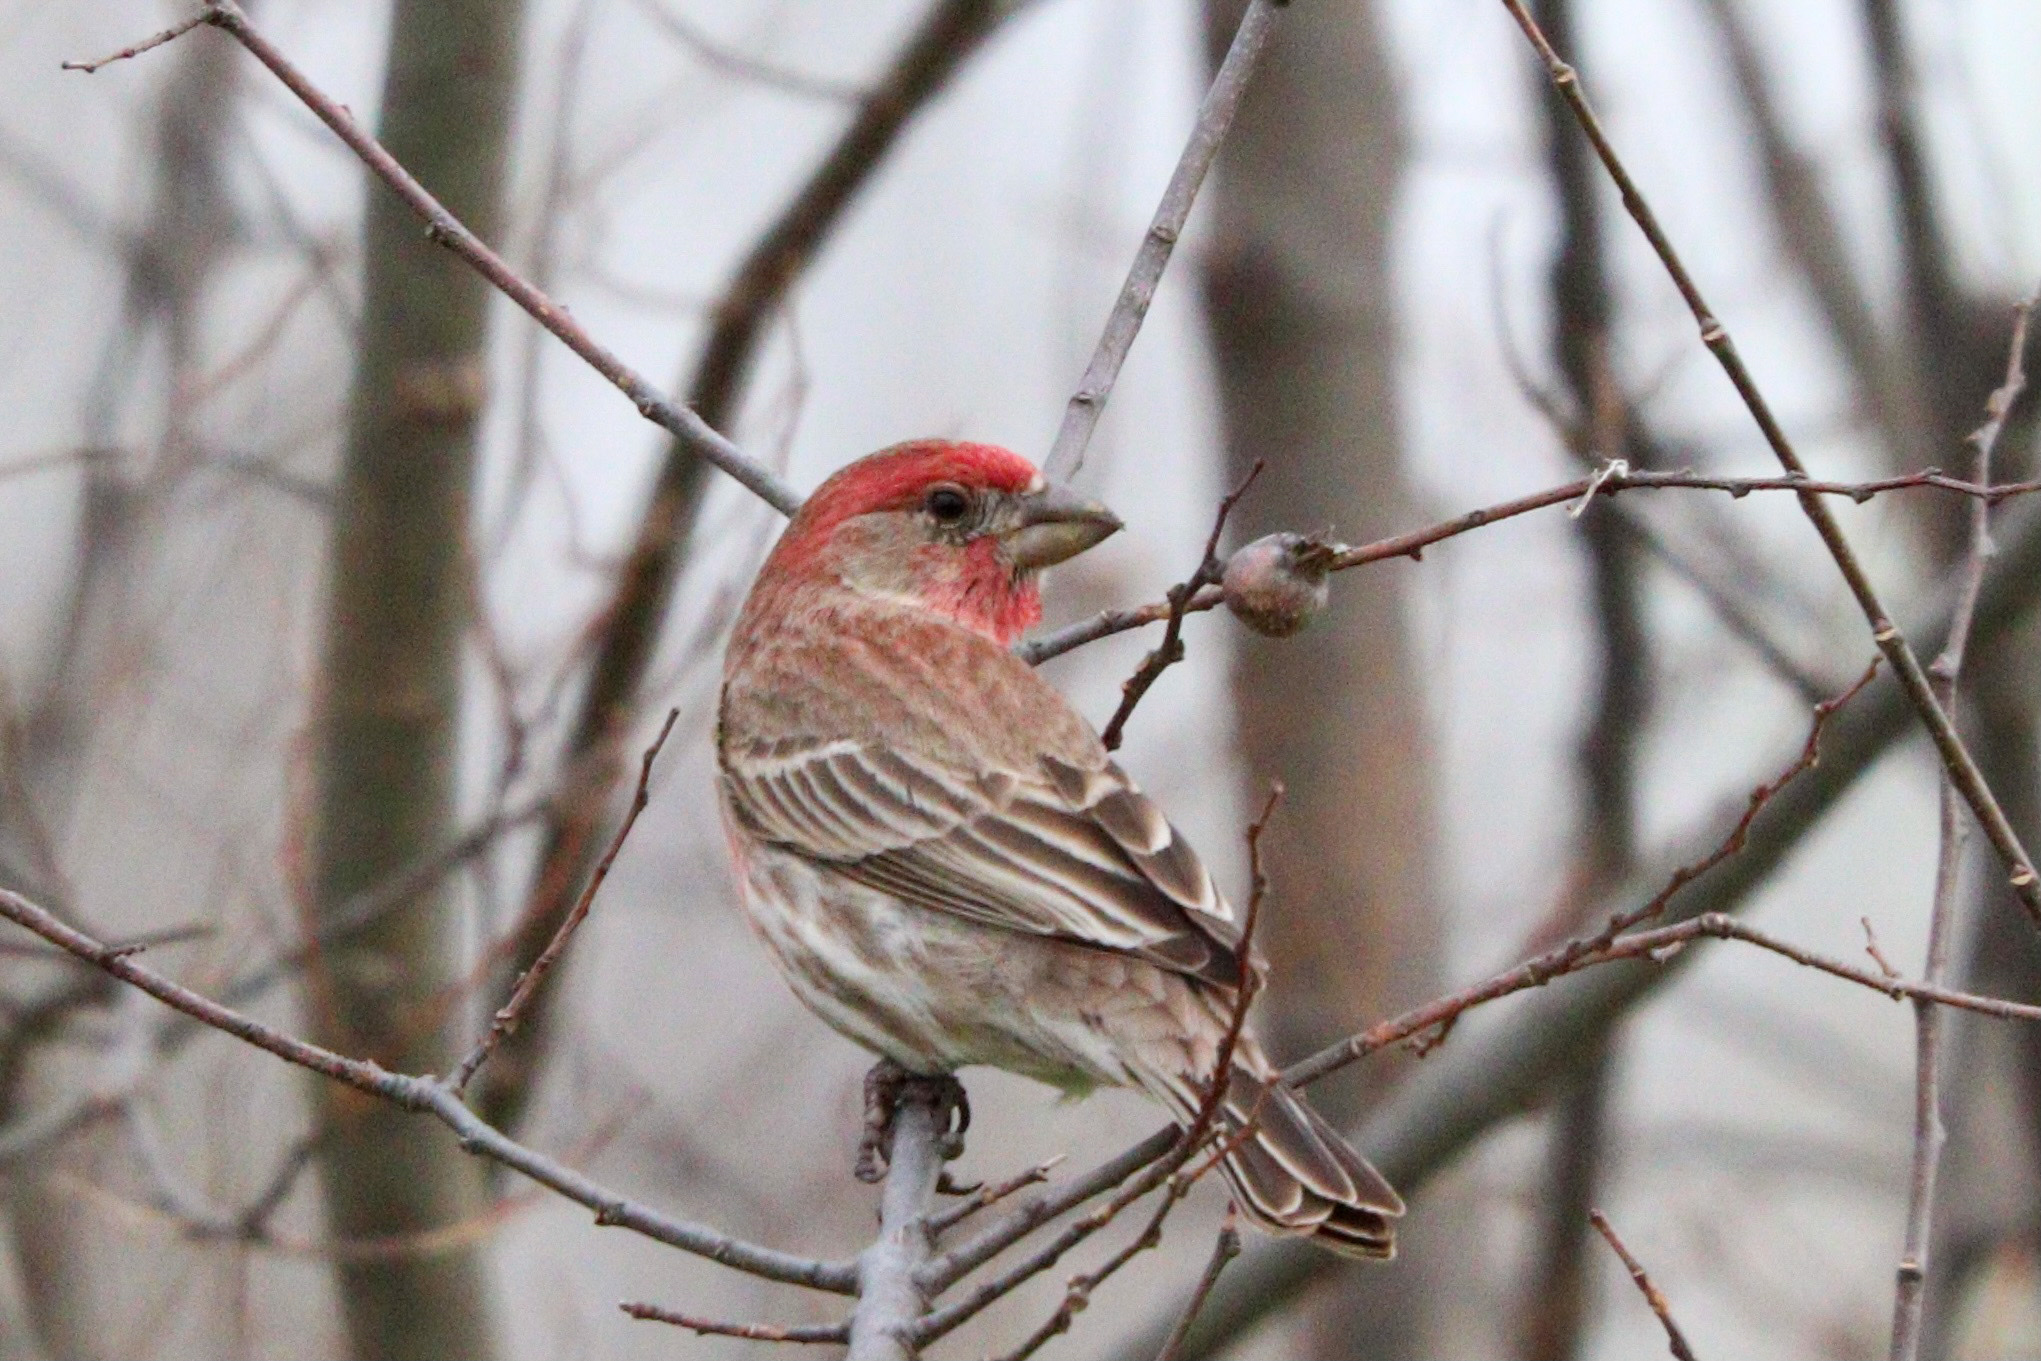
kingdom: Animalia
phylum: Chordata
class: Aves
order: Passeriformes
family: Fringillidae
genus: Haemorhous
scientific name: Haemorhous mexicanus
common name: House finch
